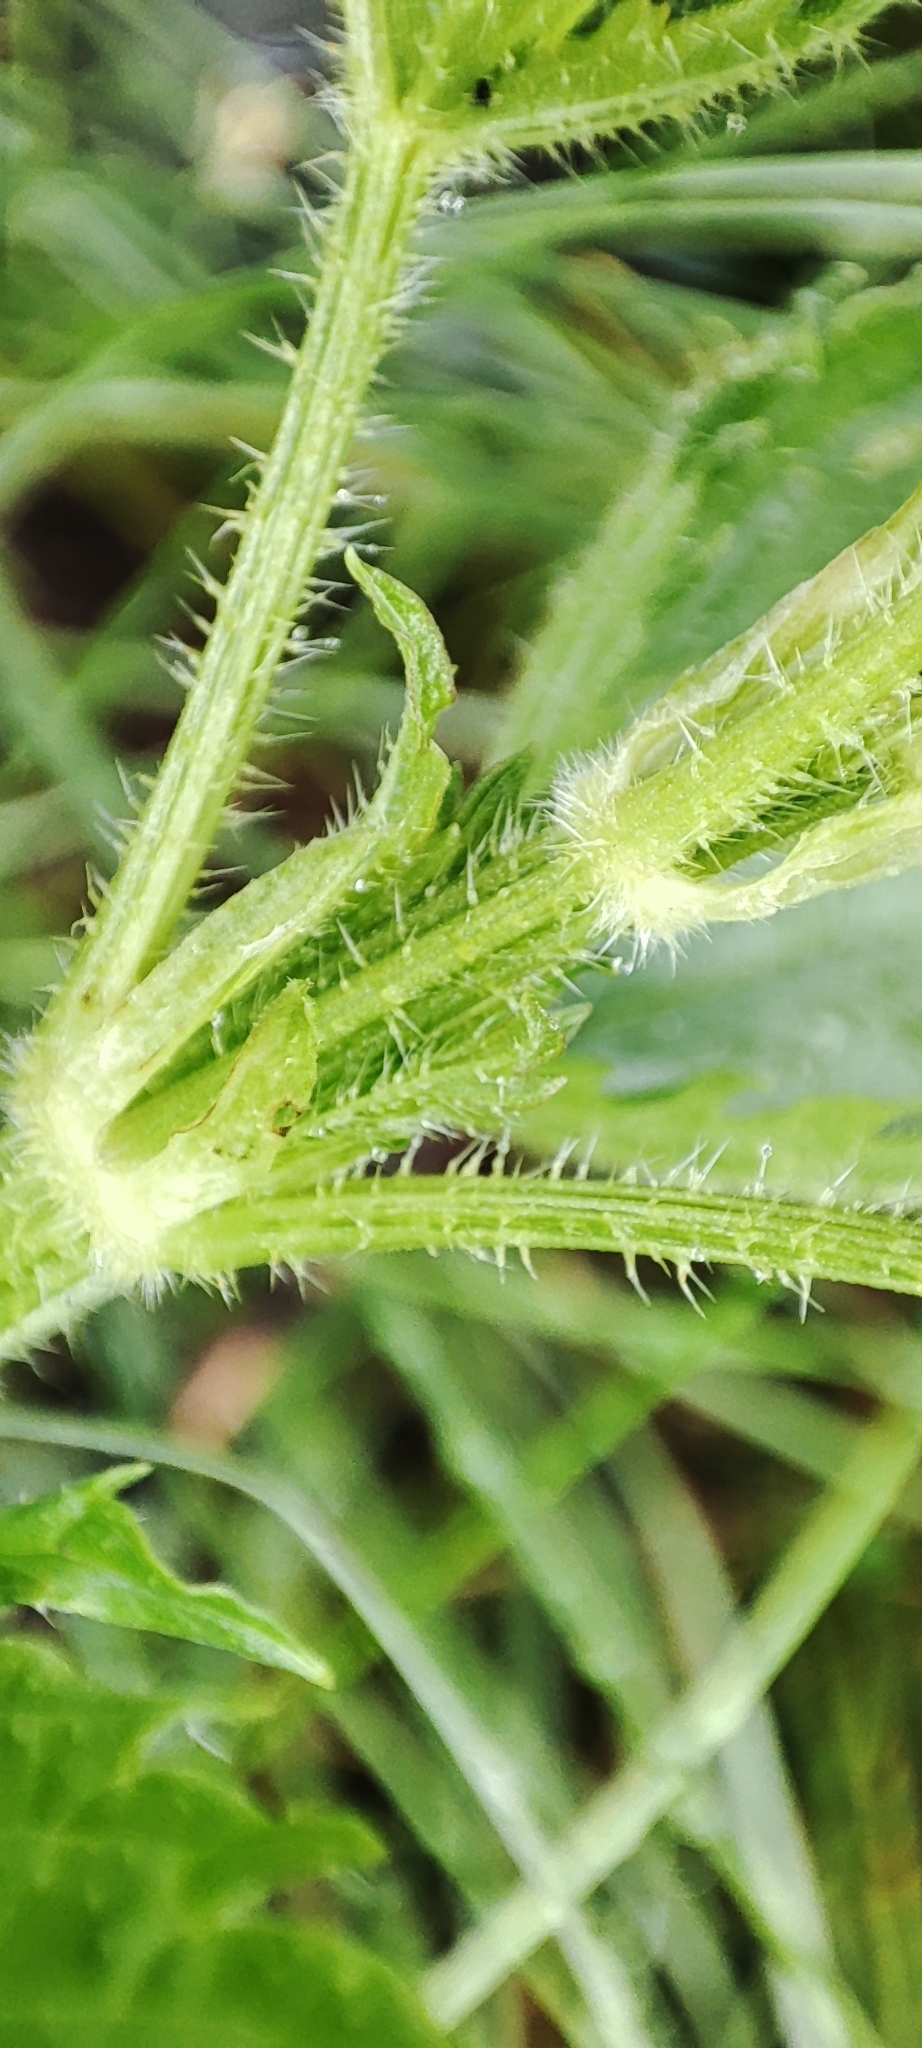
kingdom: Plantae
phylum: Tracheophyta
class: Magnoliopsida
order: Rosales
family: Urticaceae
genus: Urtica
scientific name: Urtica dioica
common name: Common nettle
